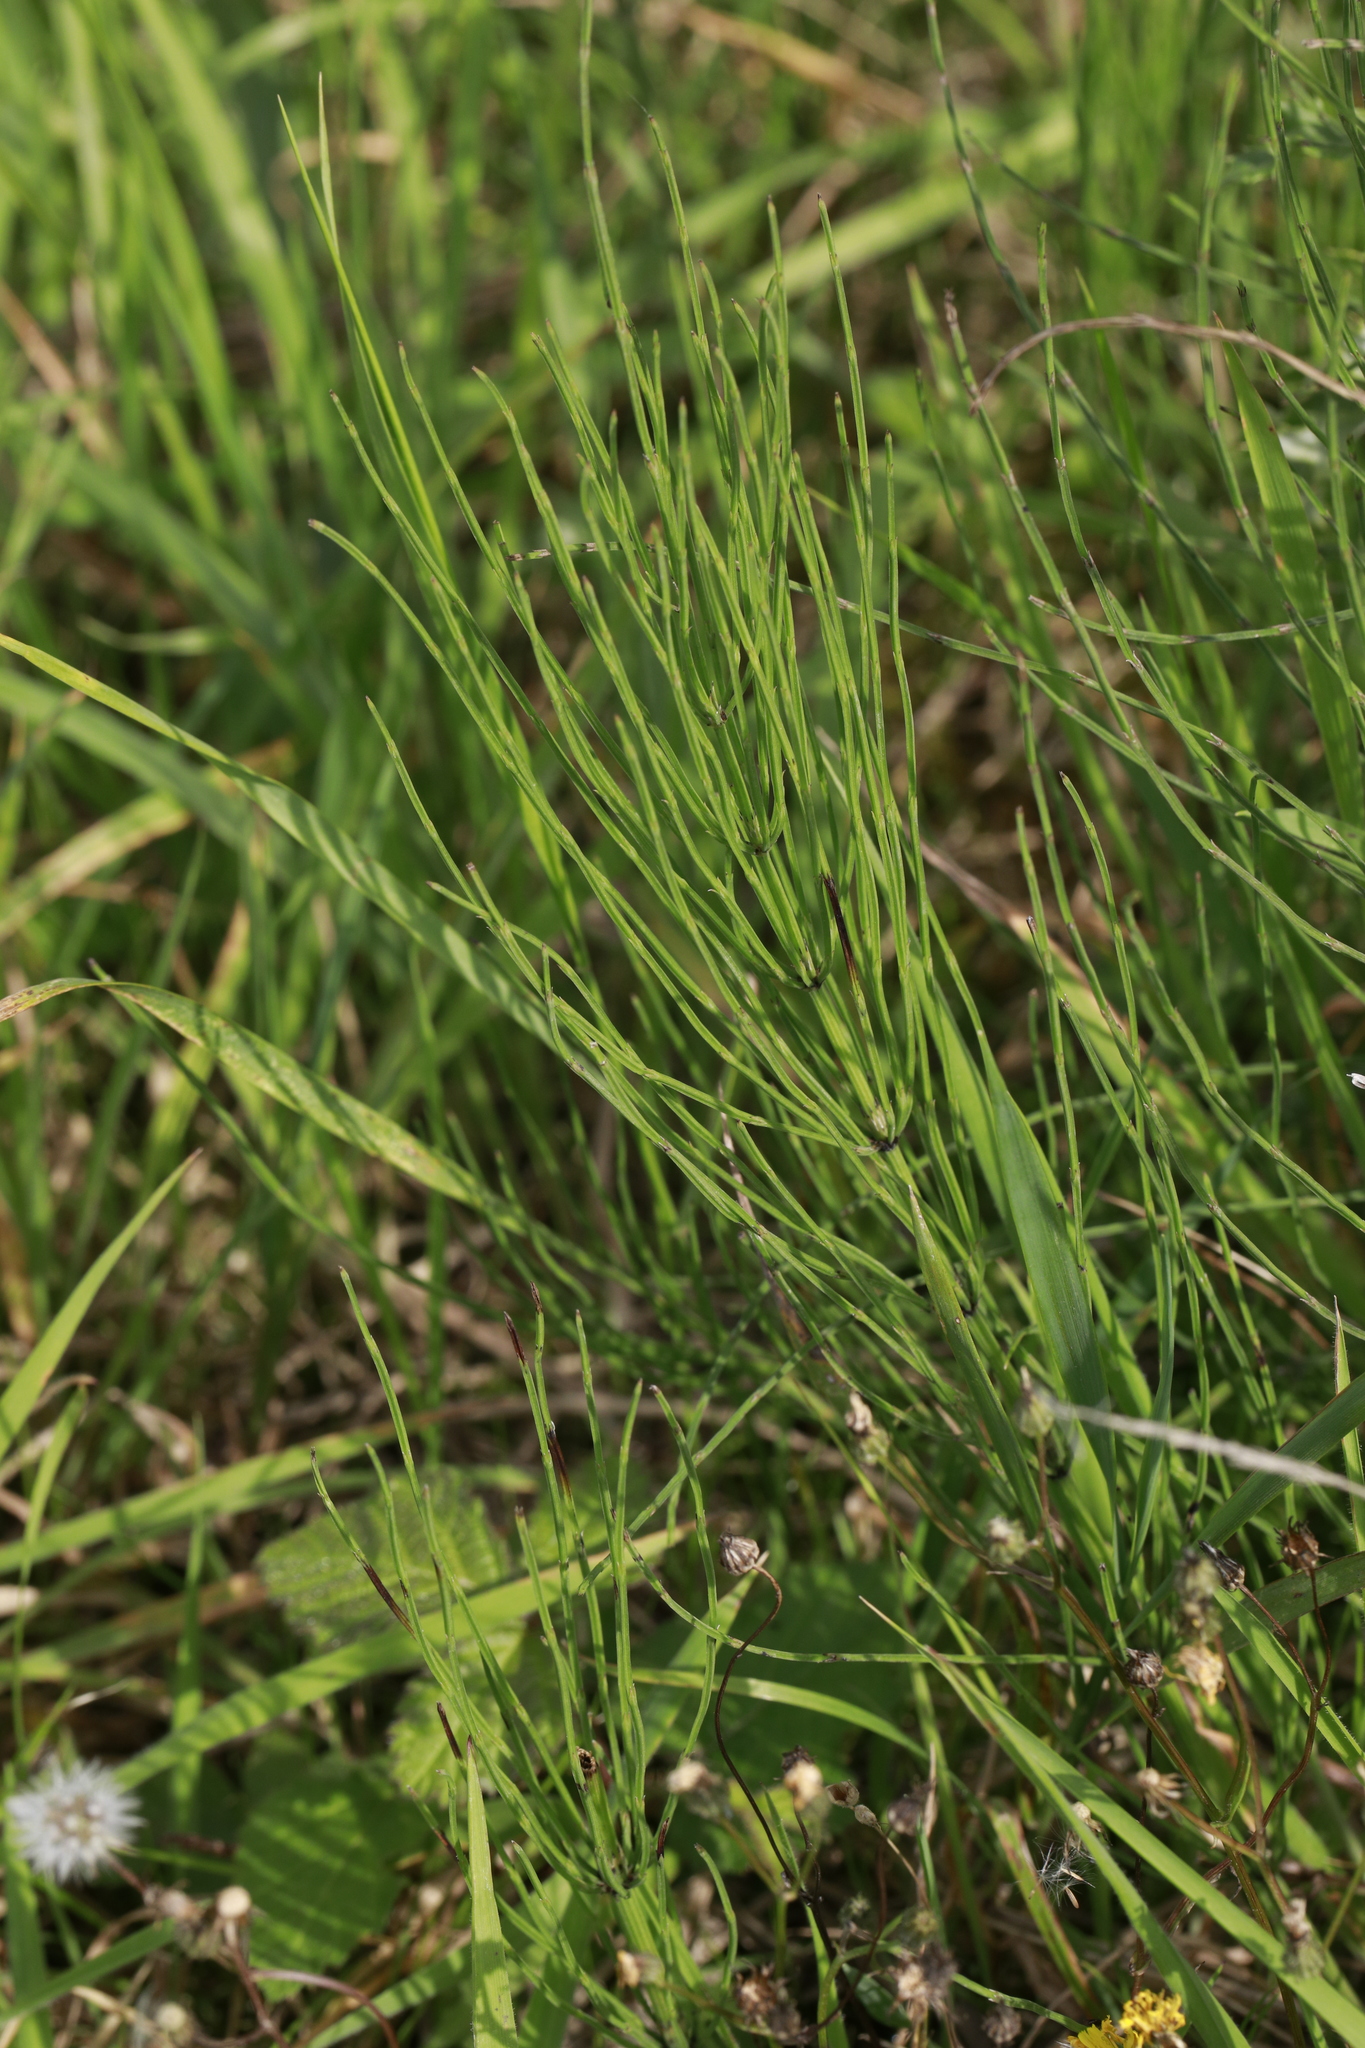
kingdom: Plantae
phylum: Tracheophyta
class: Polypodiopsida
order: Equisetales
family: Equisetaceae
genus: Equisetum
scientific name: Equisetum arvense
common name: Field horsetail
